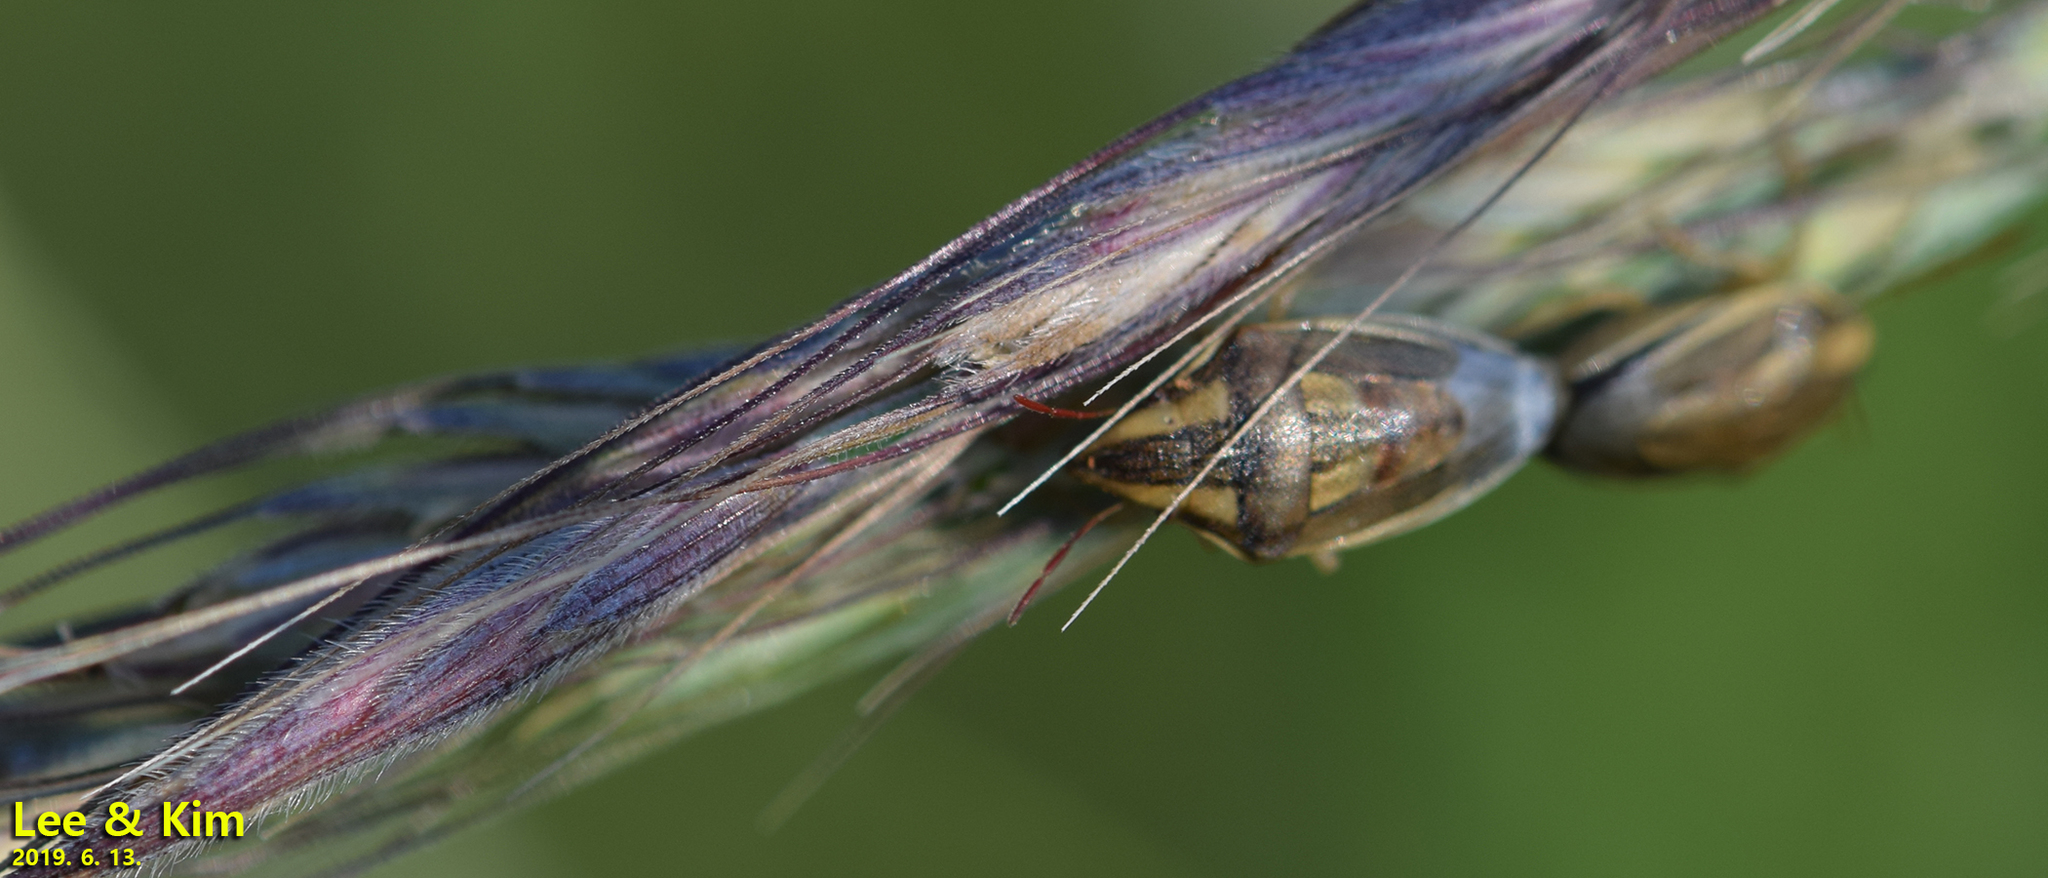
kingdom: Animalia
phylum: Arthropoda
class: Insecta
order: Hemiptera
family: Pentatomidae
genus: Aelia
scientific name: Aelia
